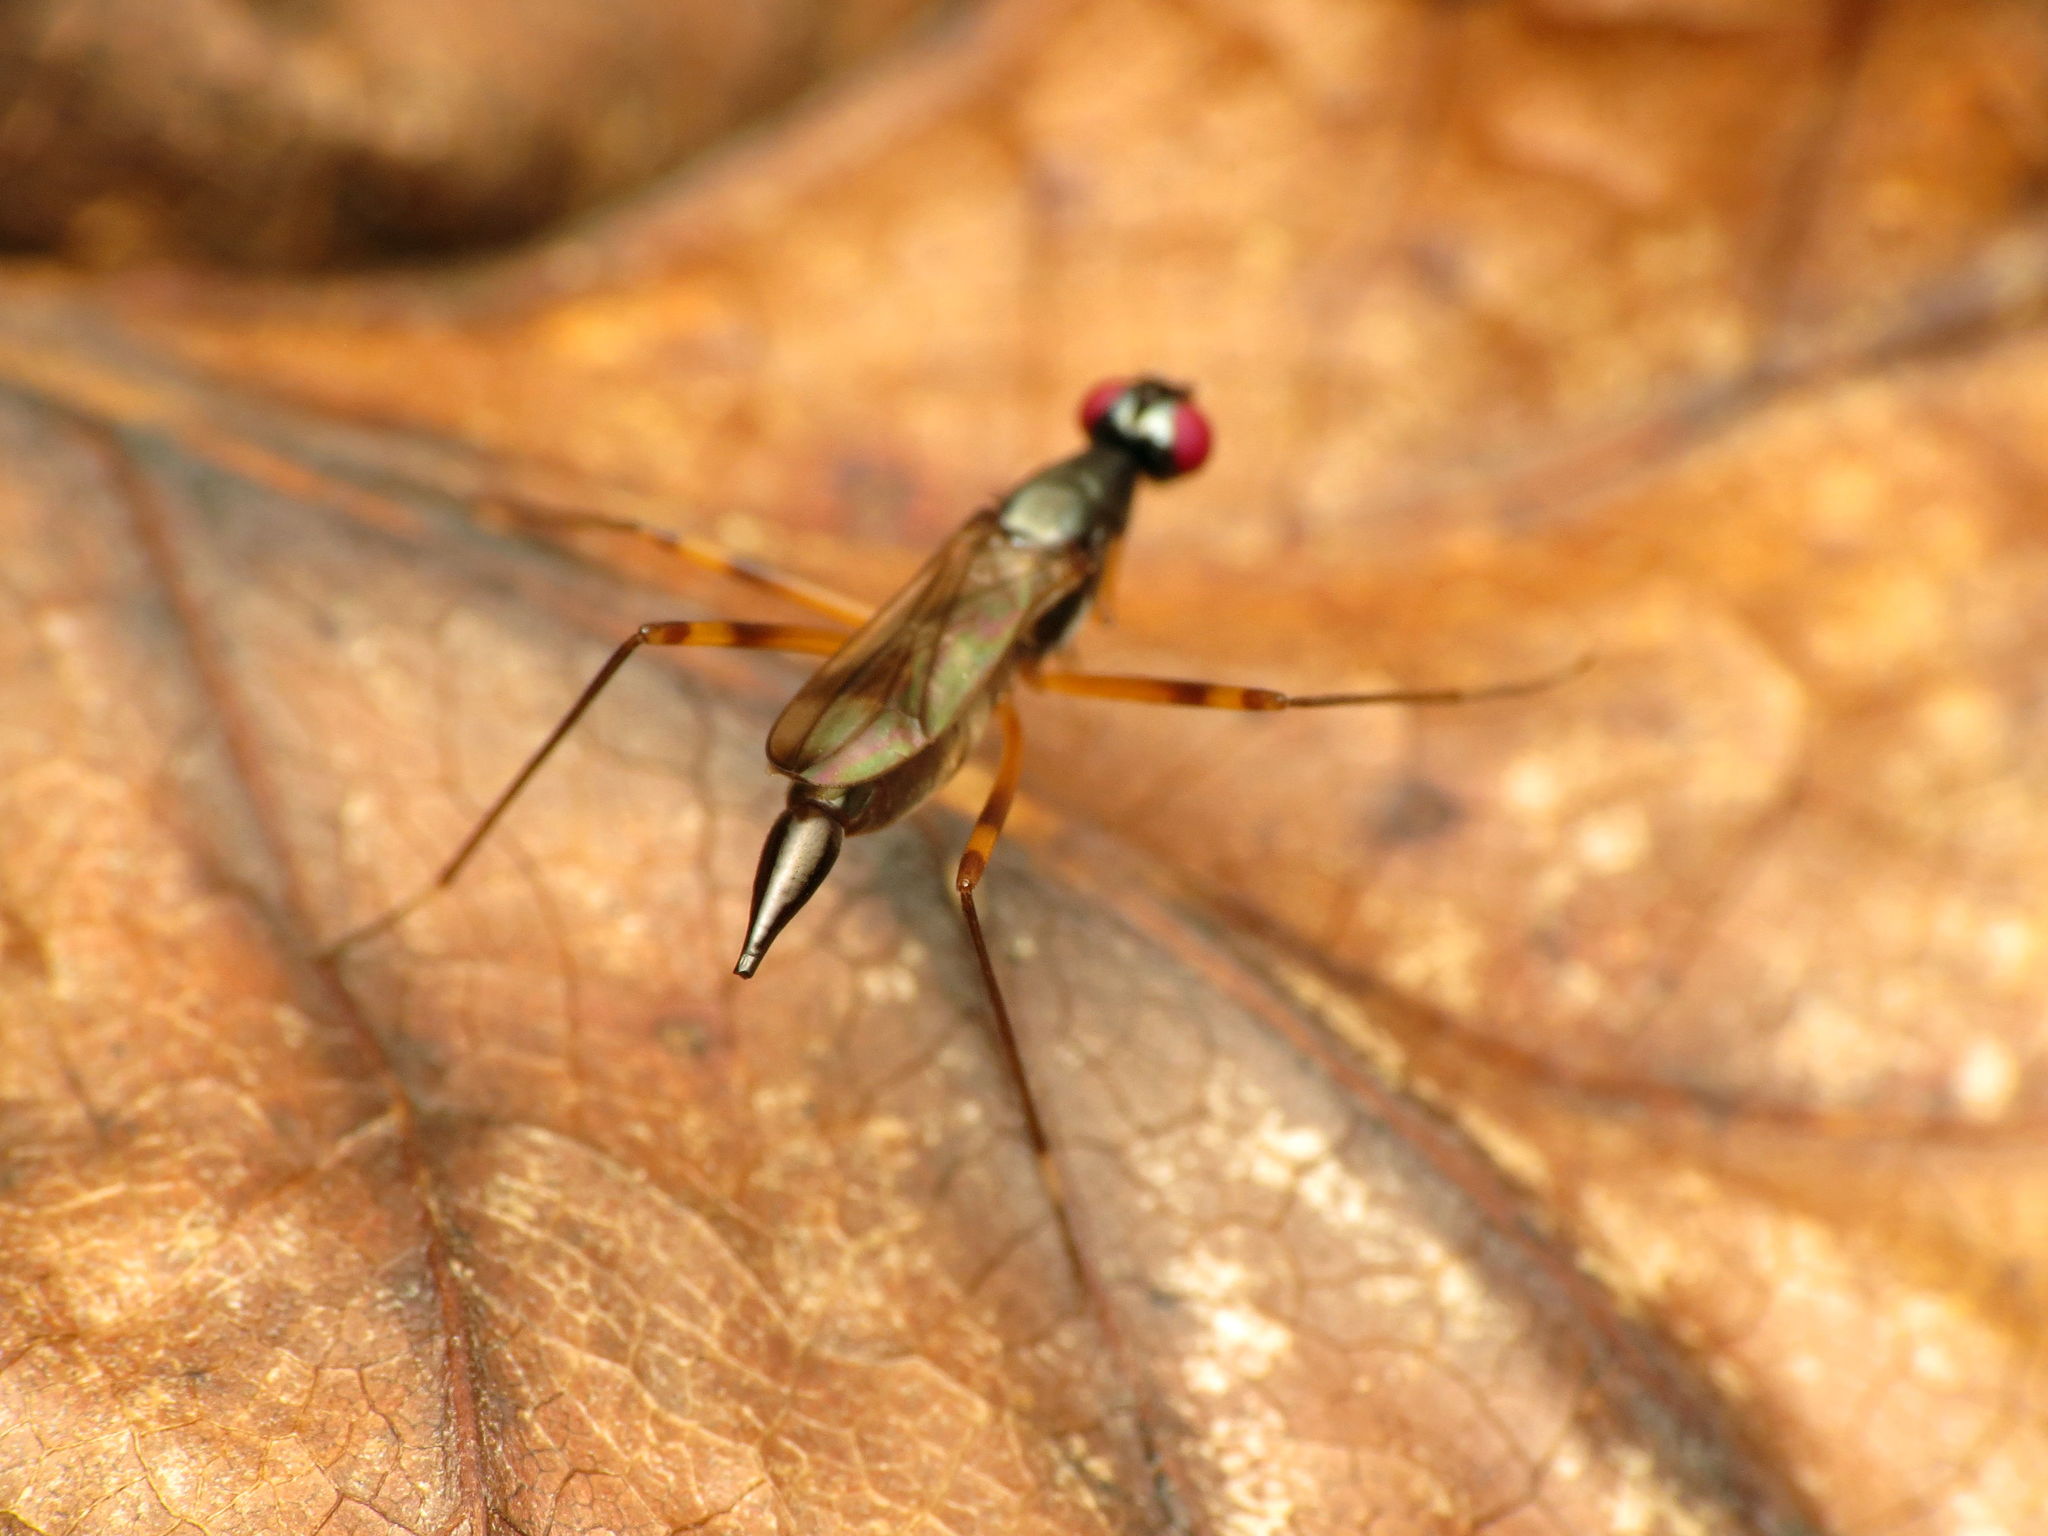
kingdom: Animalia
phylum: Arthropoda
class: Insecta
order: Diptera
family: Micropezidae
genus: Rainieria
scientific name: Rainieria antennaepes
